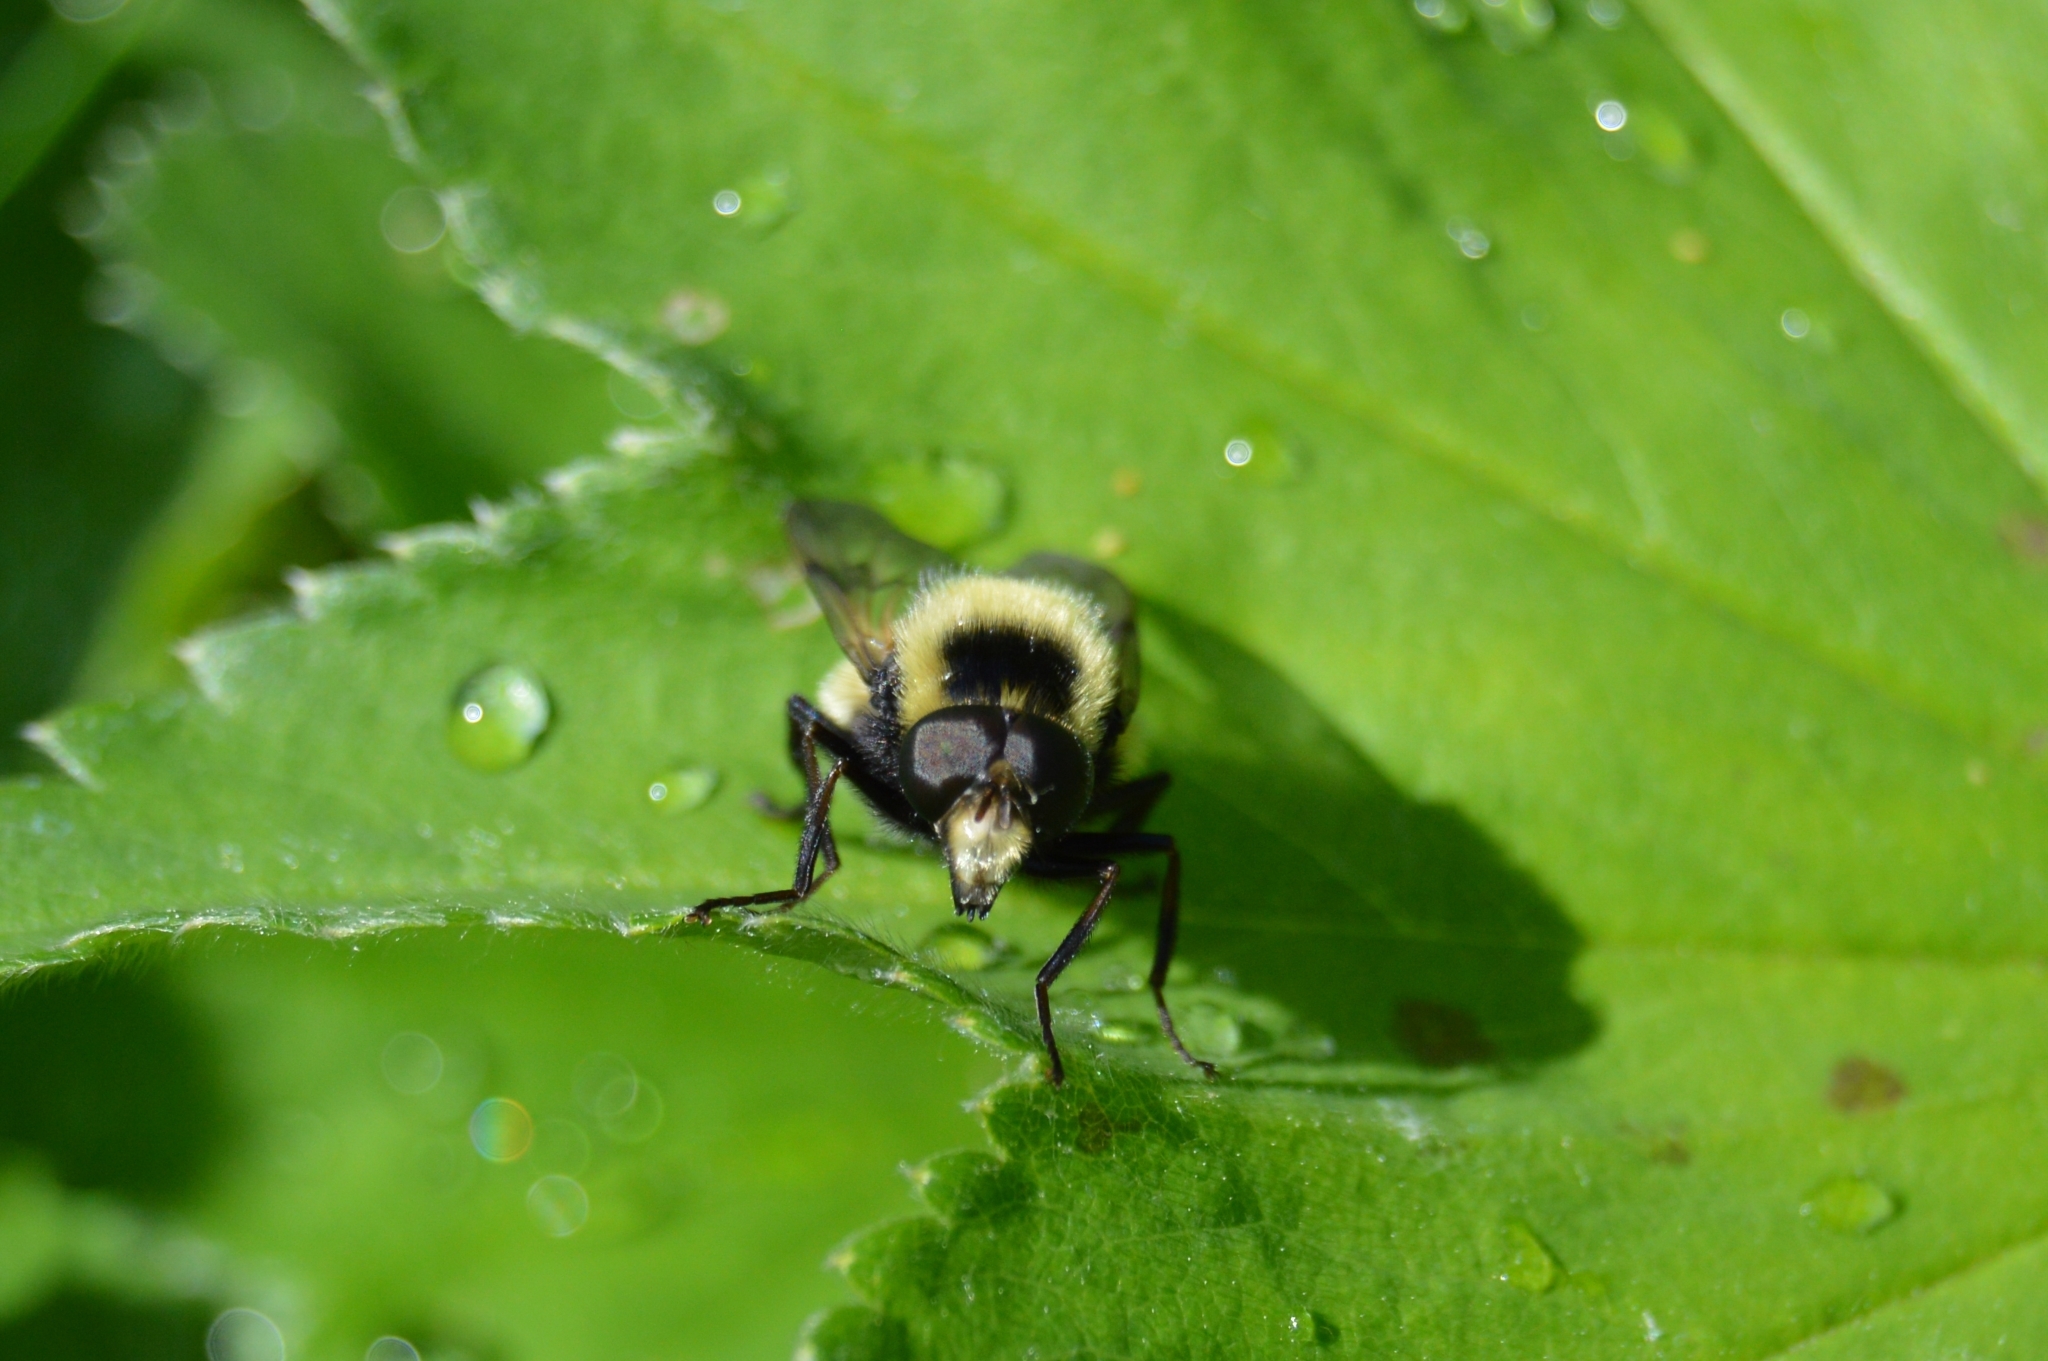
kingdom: Animalia
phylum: Arthropoda
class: Insecta
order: Diptera
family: Syrphidae
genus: Volucella
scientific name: Volucella bombylans
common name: Bumble bee hover fly
